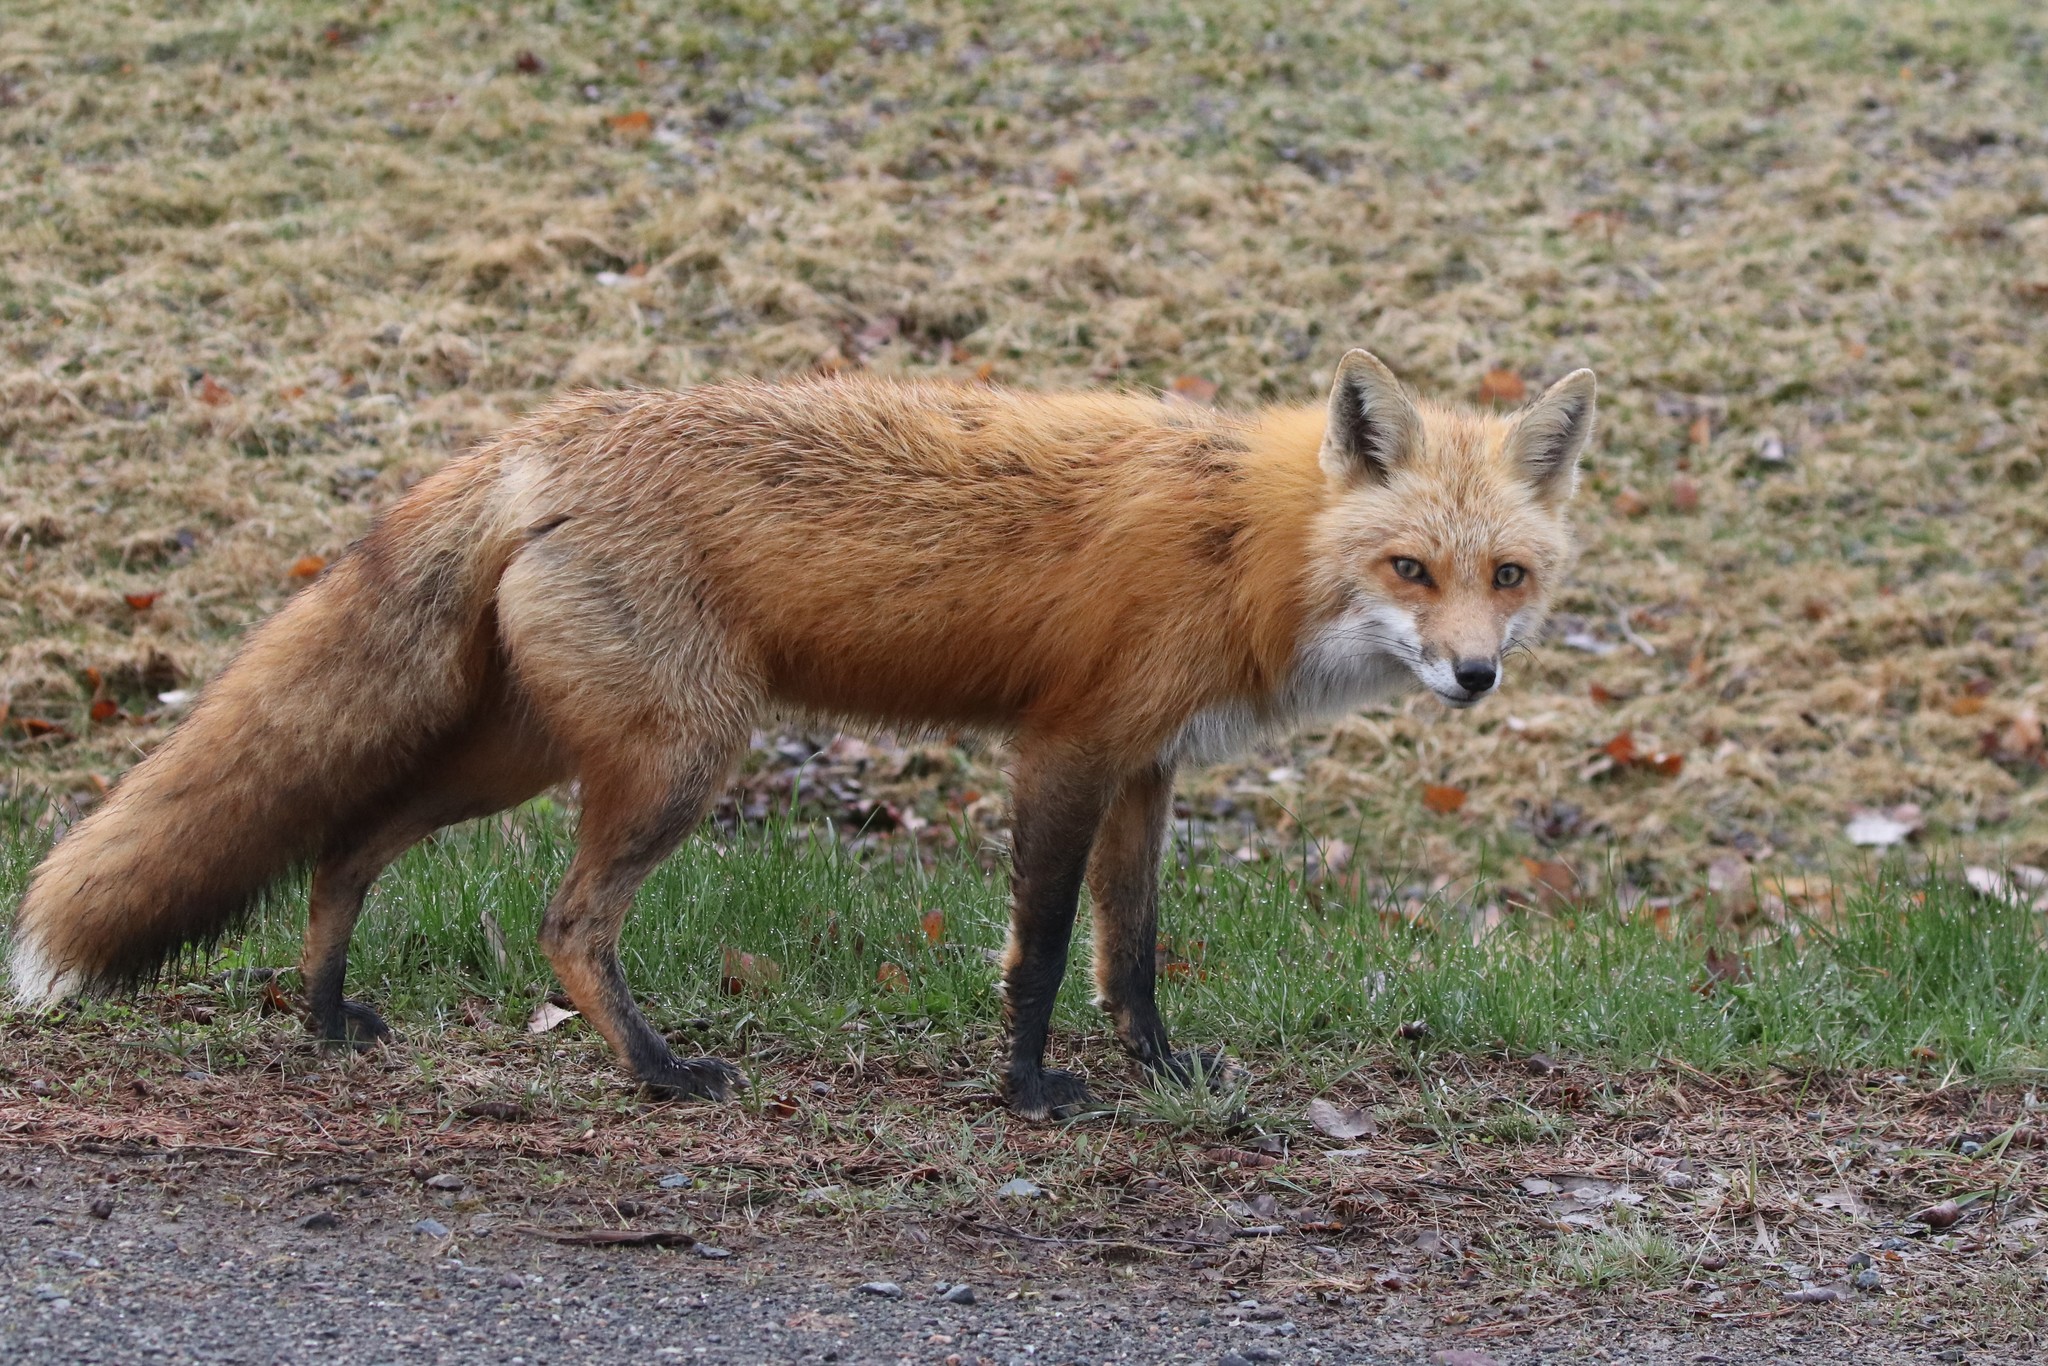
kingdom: Animalia
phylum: Chordata
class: Mammalia
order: Carnivora
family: Canidae
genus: Vulpes
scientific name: Vulpes vulpes
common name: Red fox
